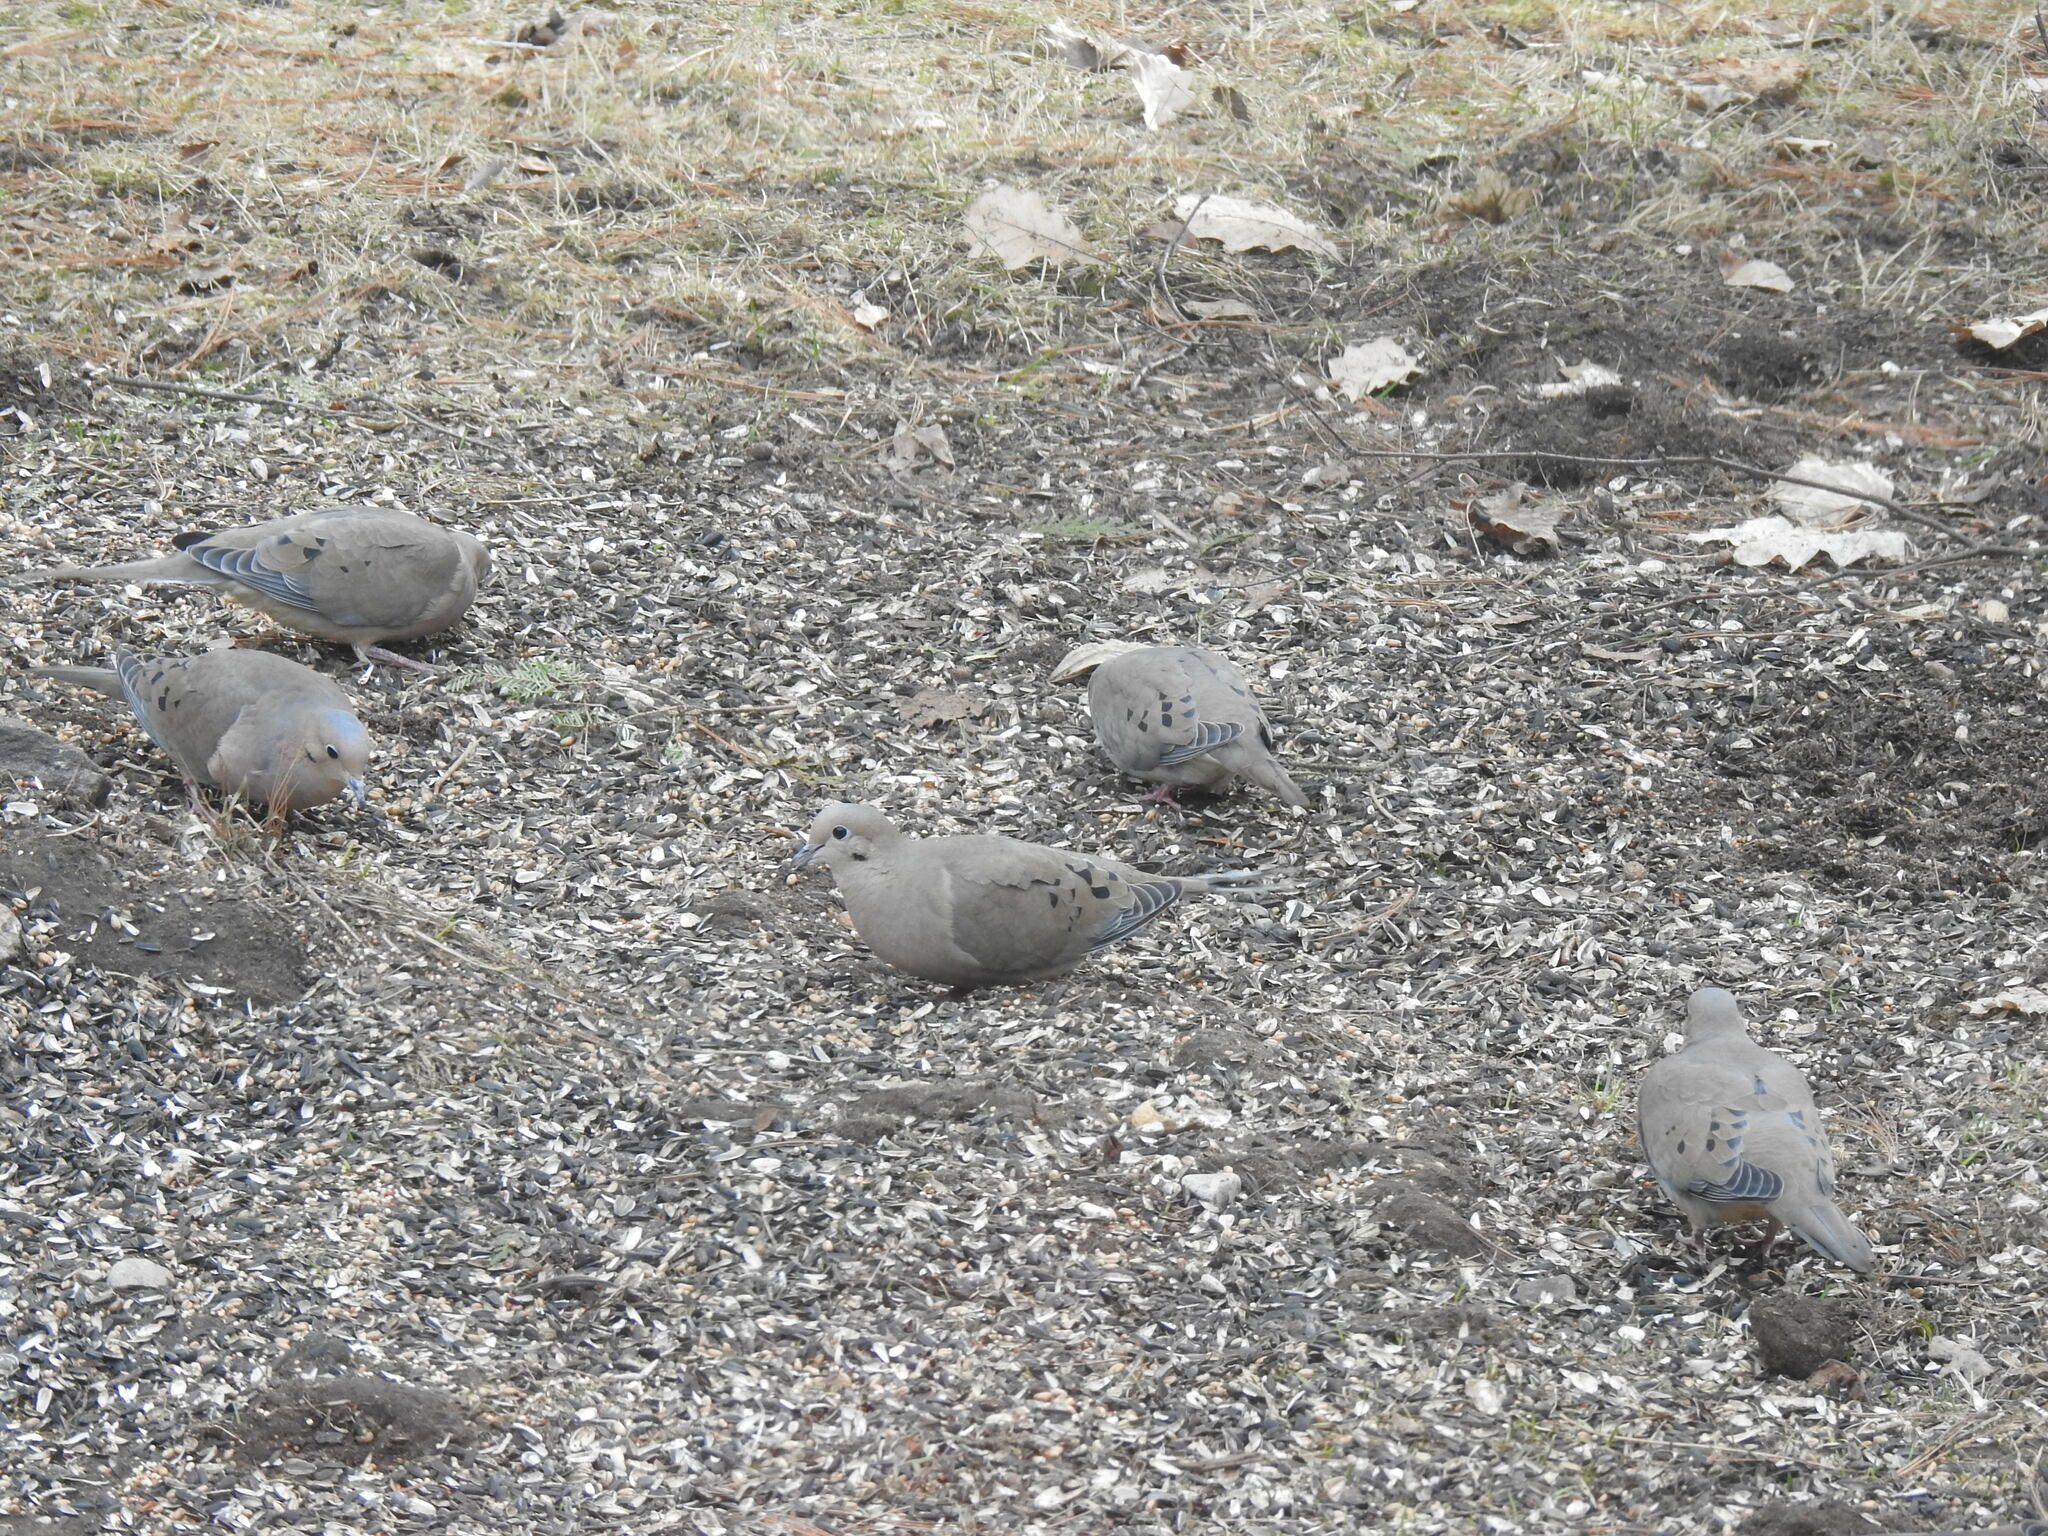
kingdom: Animalia
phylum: Chordata
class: Aves
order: Columbiformes
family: Columbidae
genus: Zenaida
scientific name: Zenaida macroura
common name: Mourning dove
